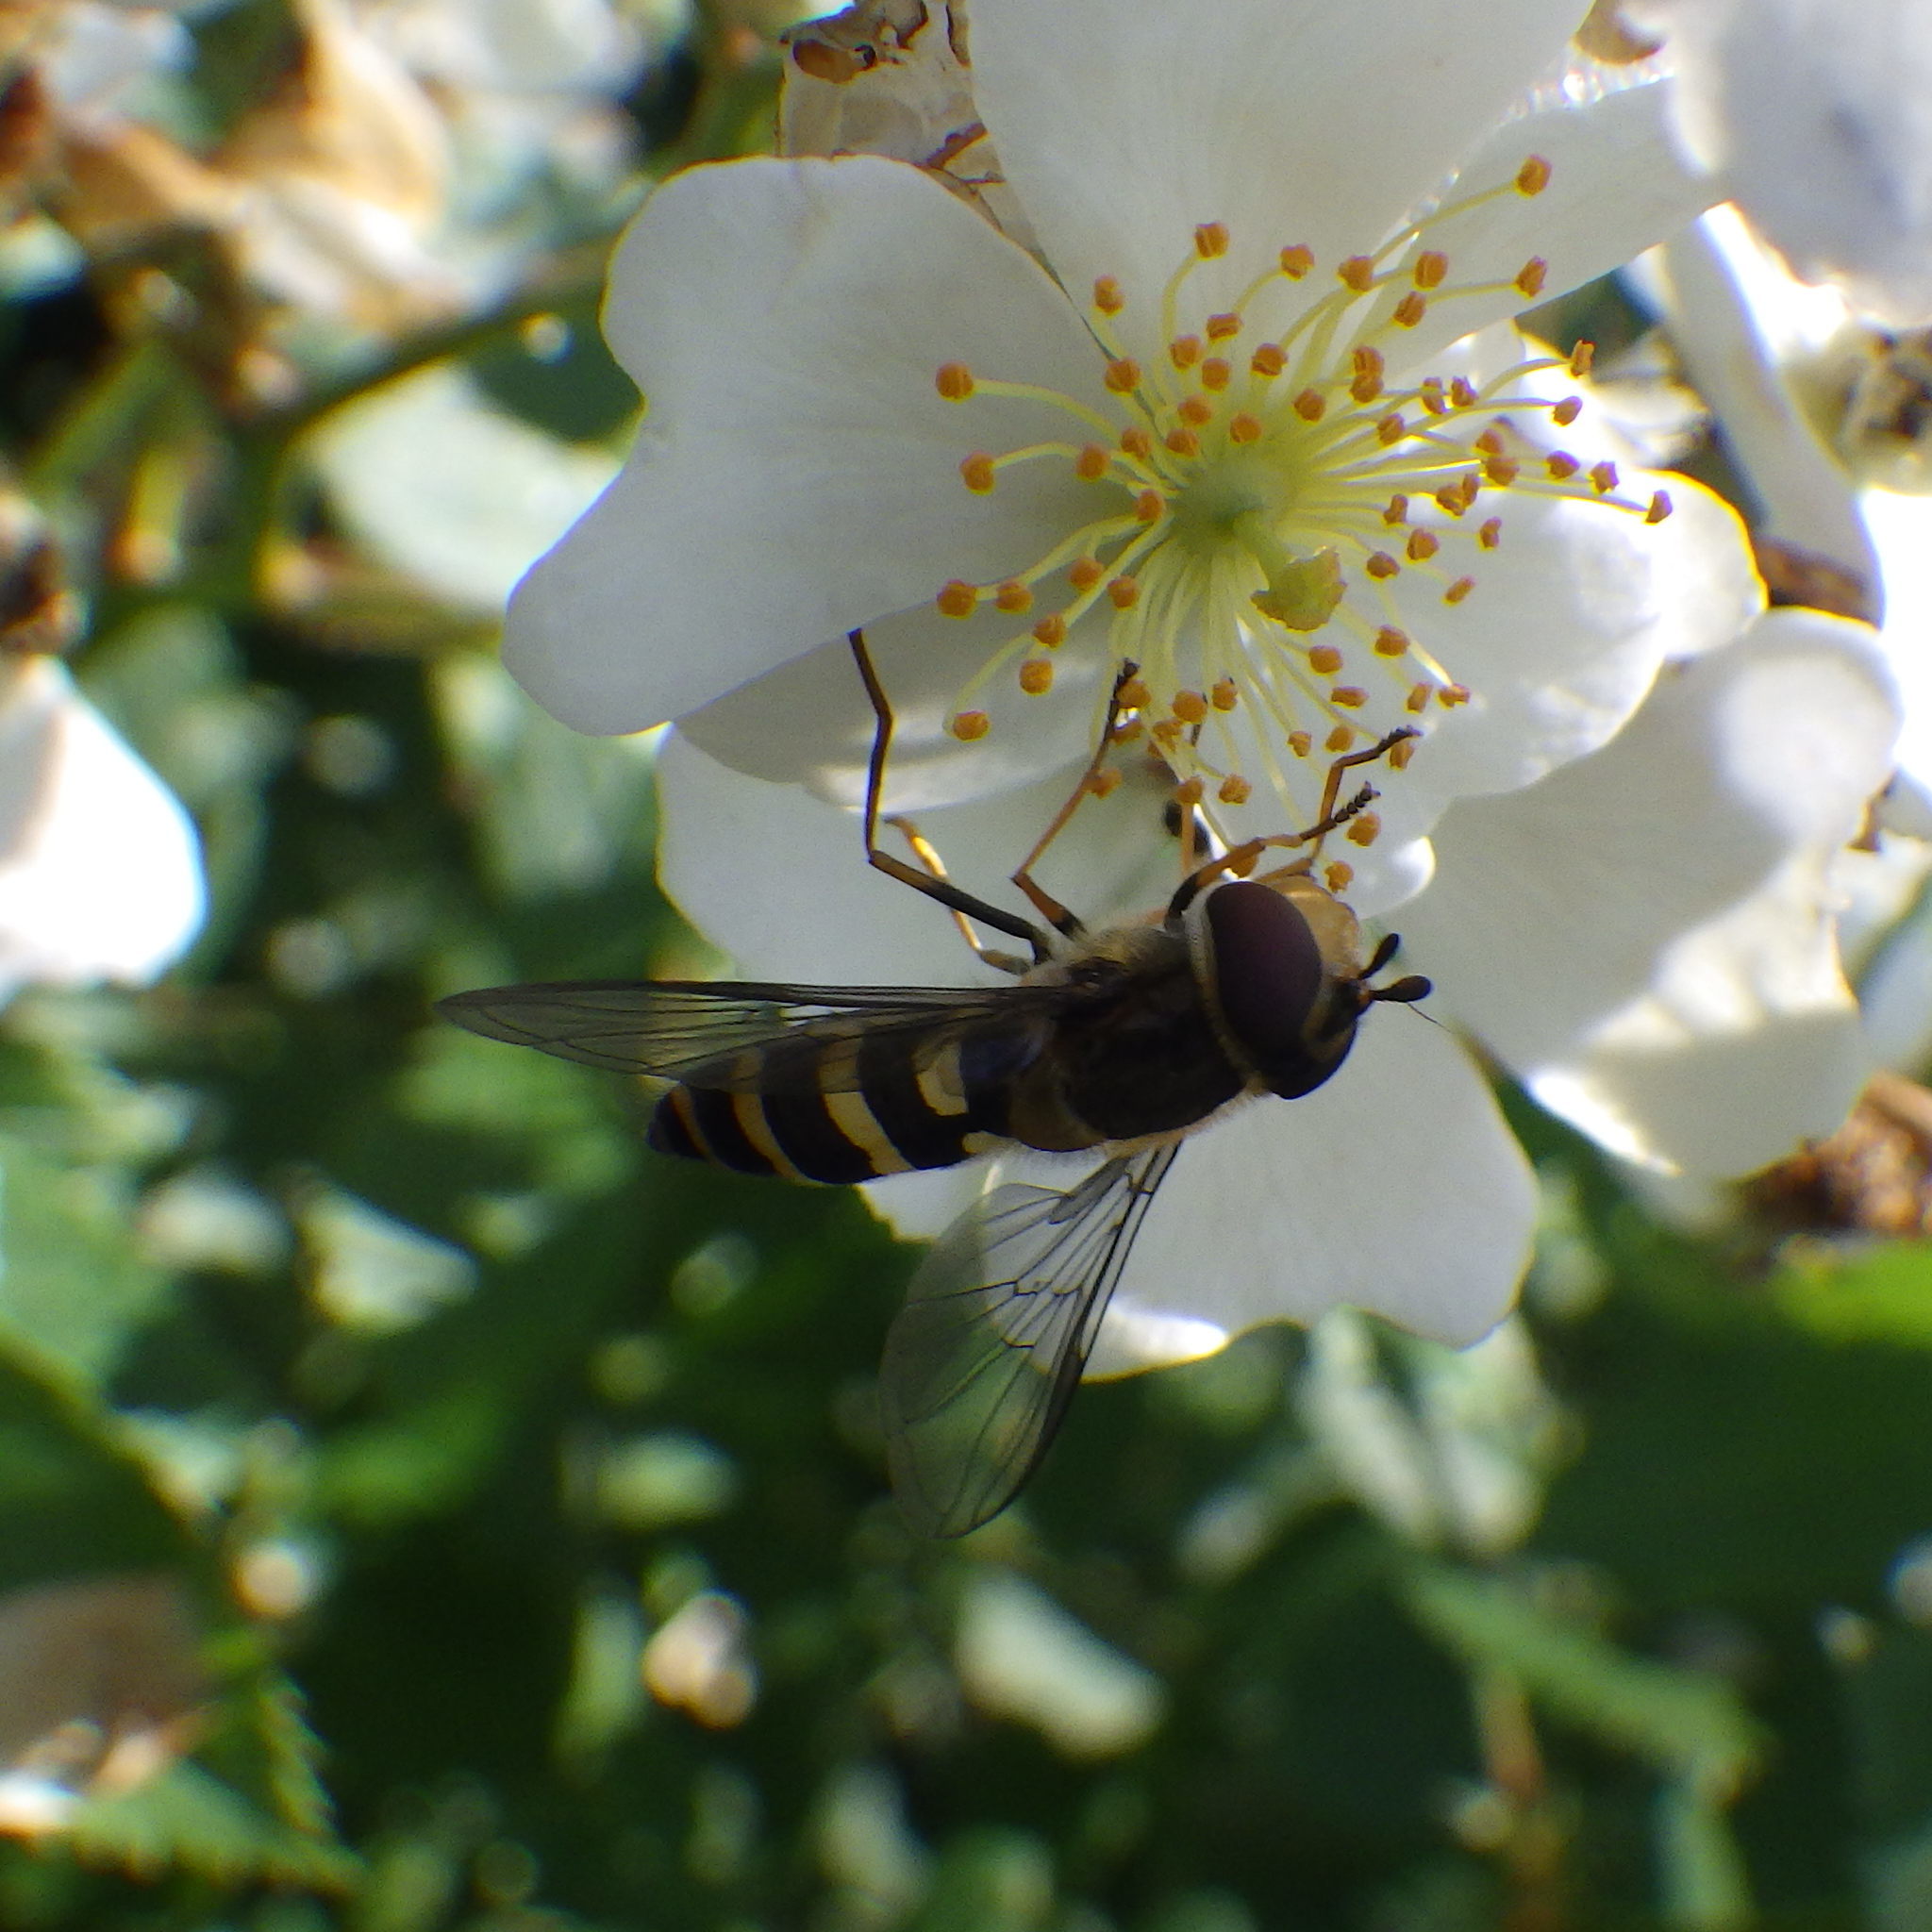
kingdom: Animalia
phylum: Arthropoda
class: Insecta
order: Diptera
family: Syrphidae
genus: Syrphus
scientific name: Syrphus
